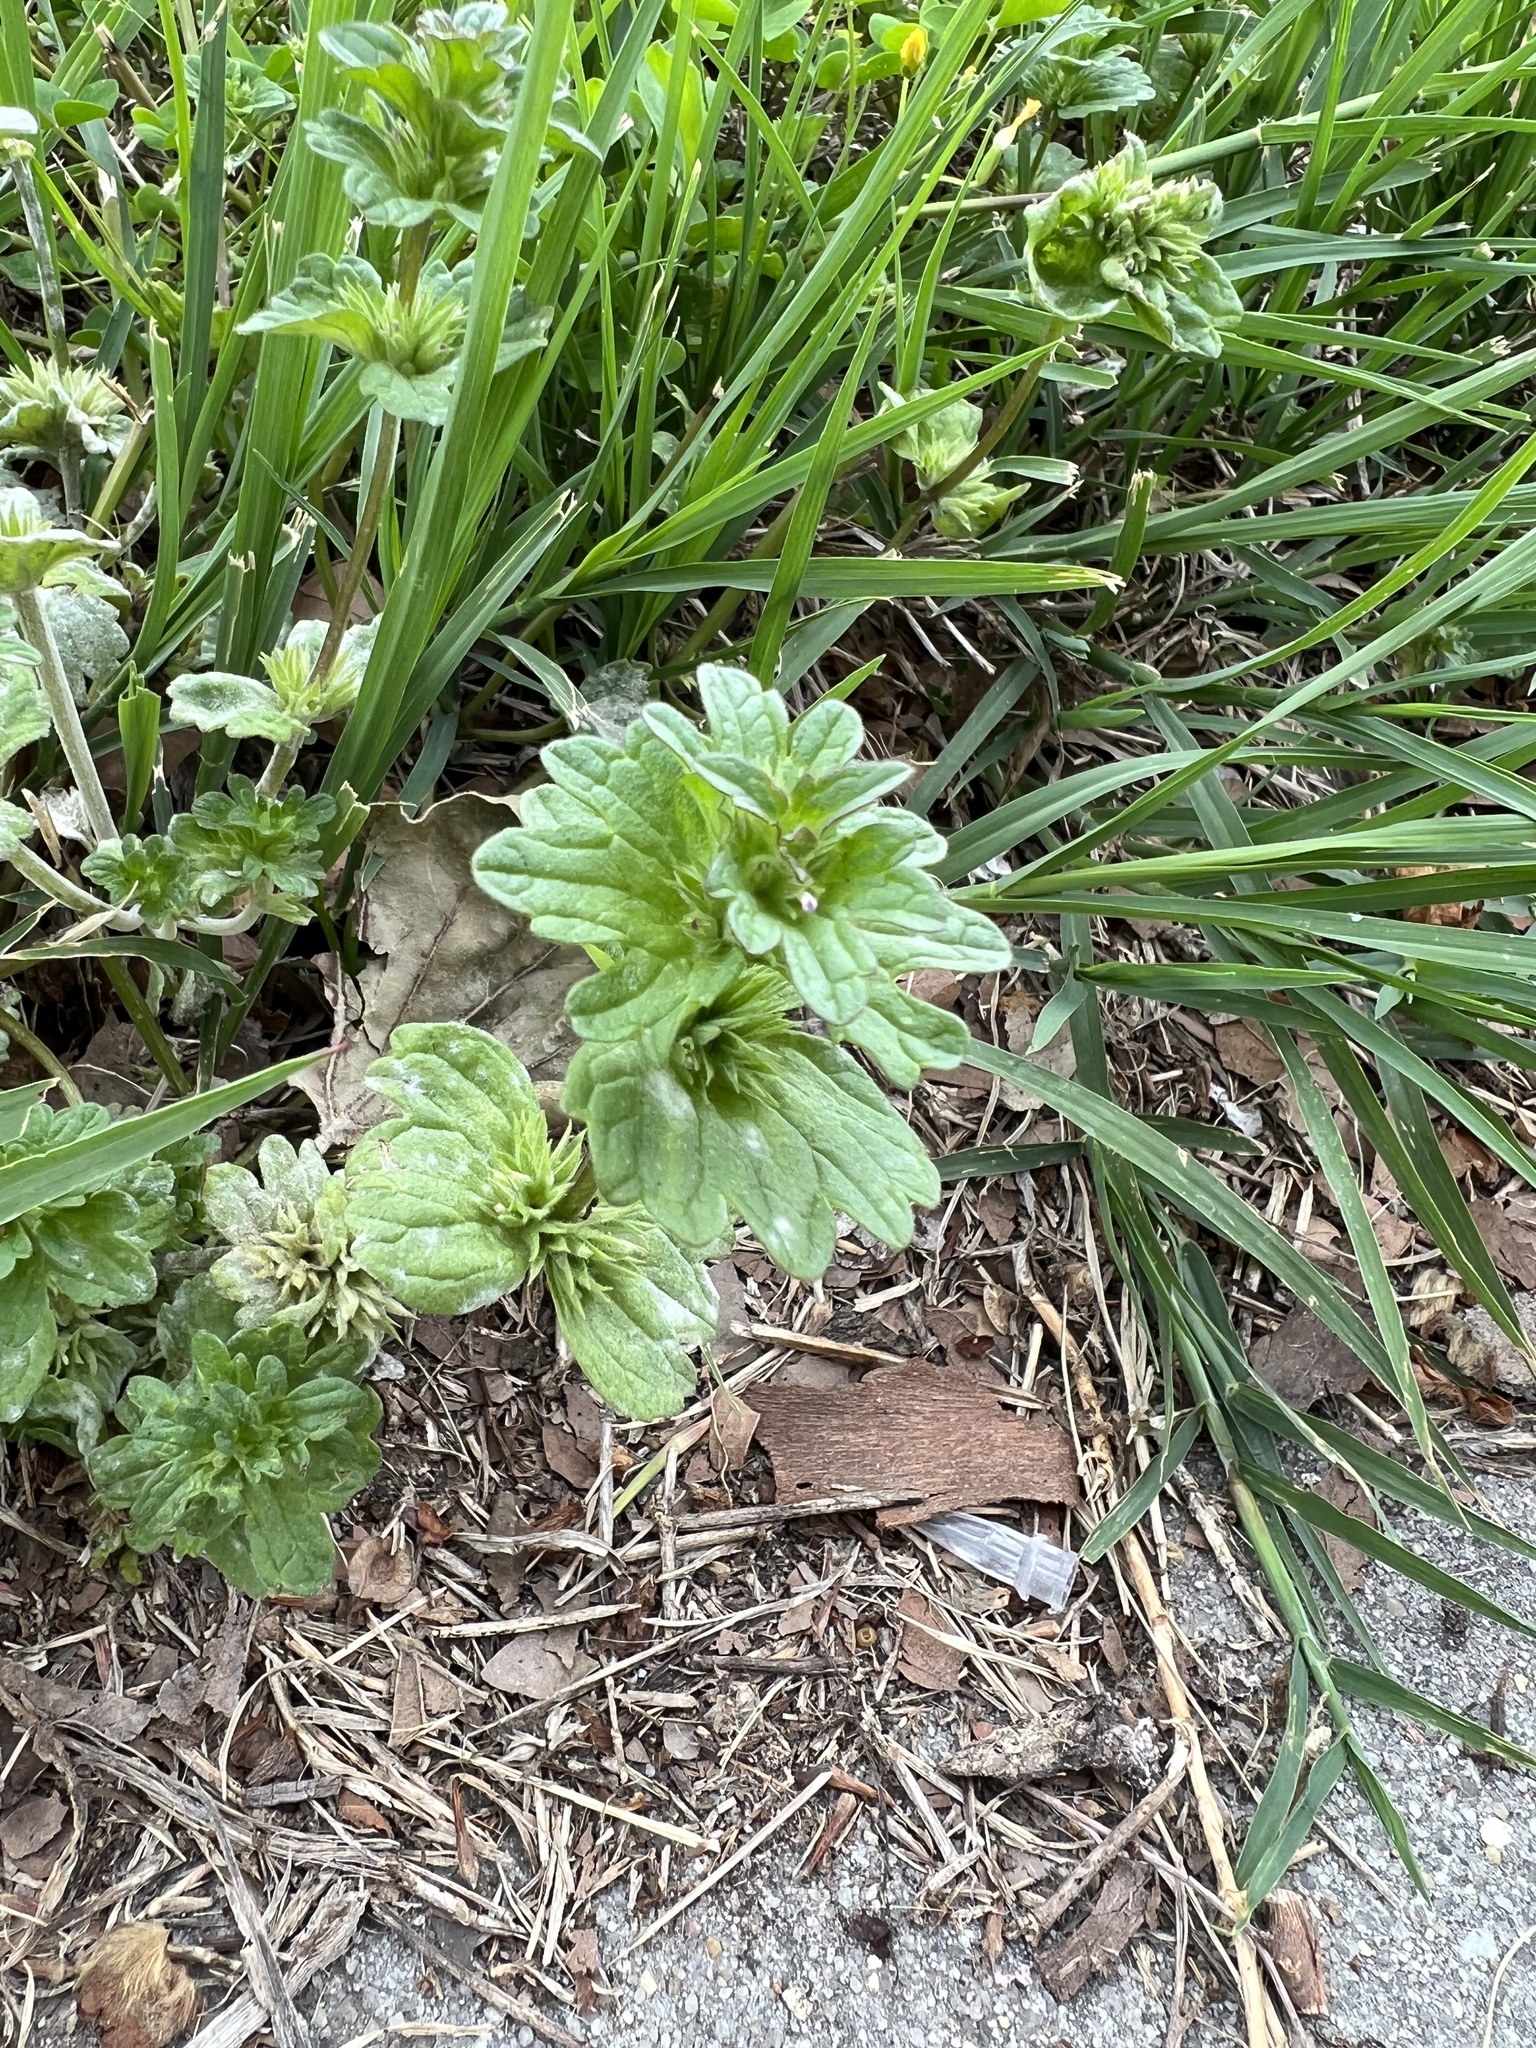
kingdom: Plantae
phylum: Tracheophyta
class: Magnoliopsida
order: Lamiales
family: Lamiaceae
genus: Lamium
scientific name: Lamium amplexicaule
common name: Henbit dead-nettle
